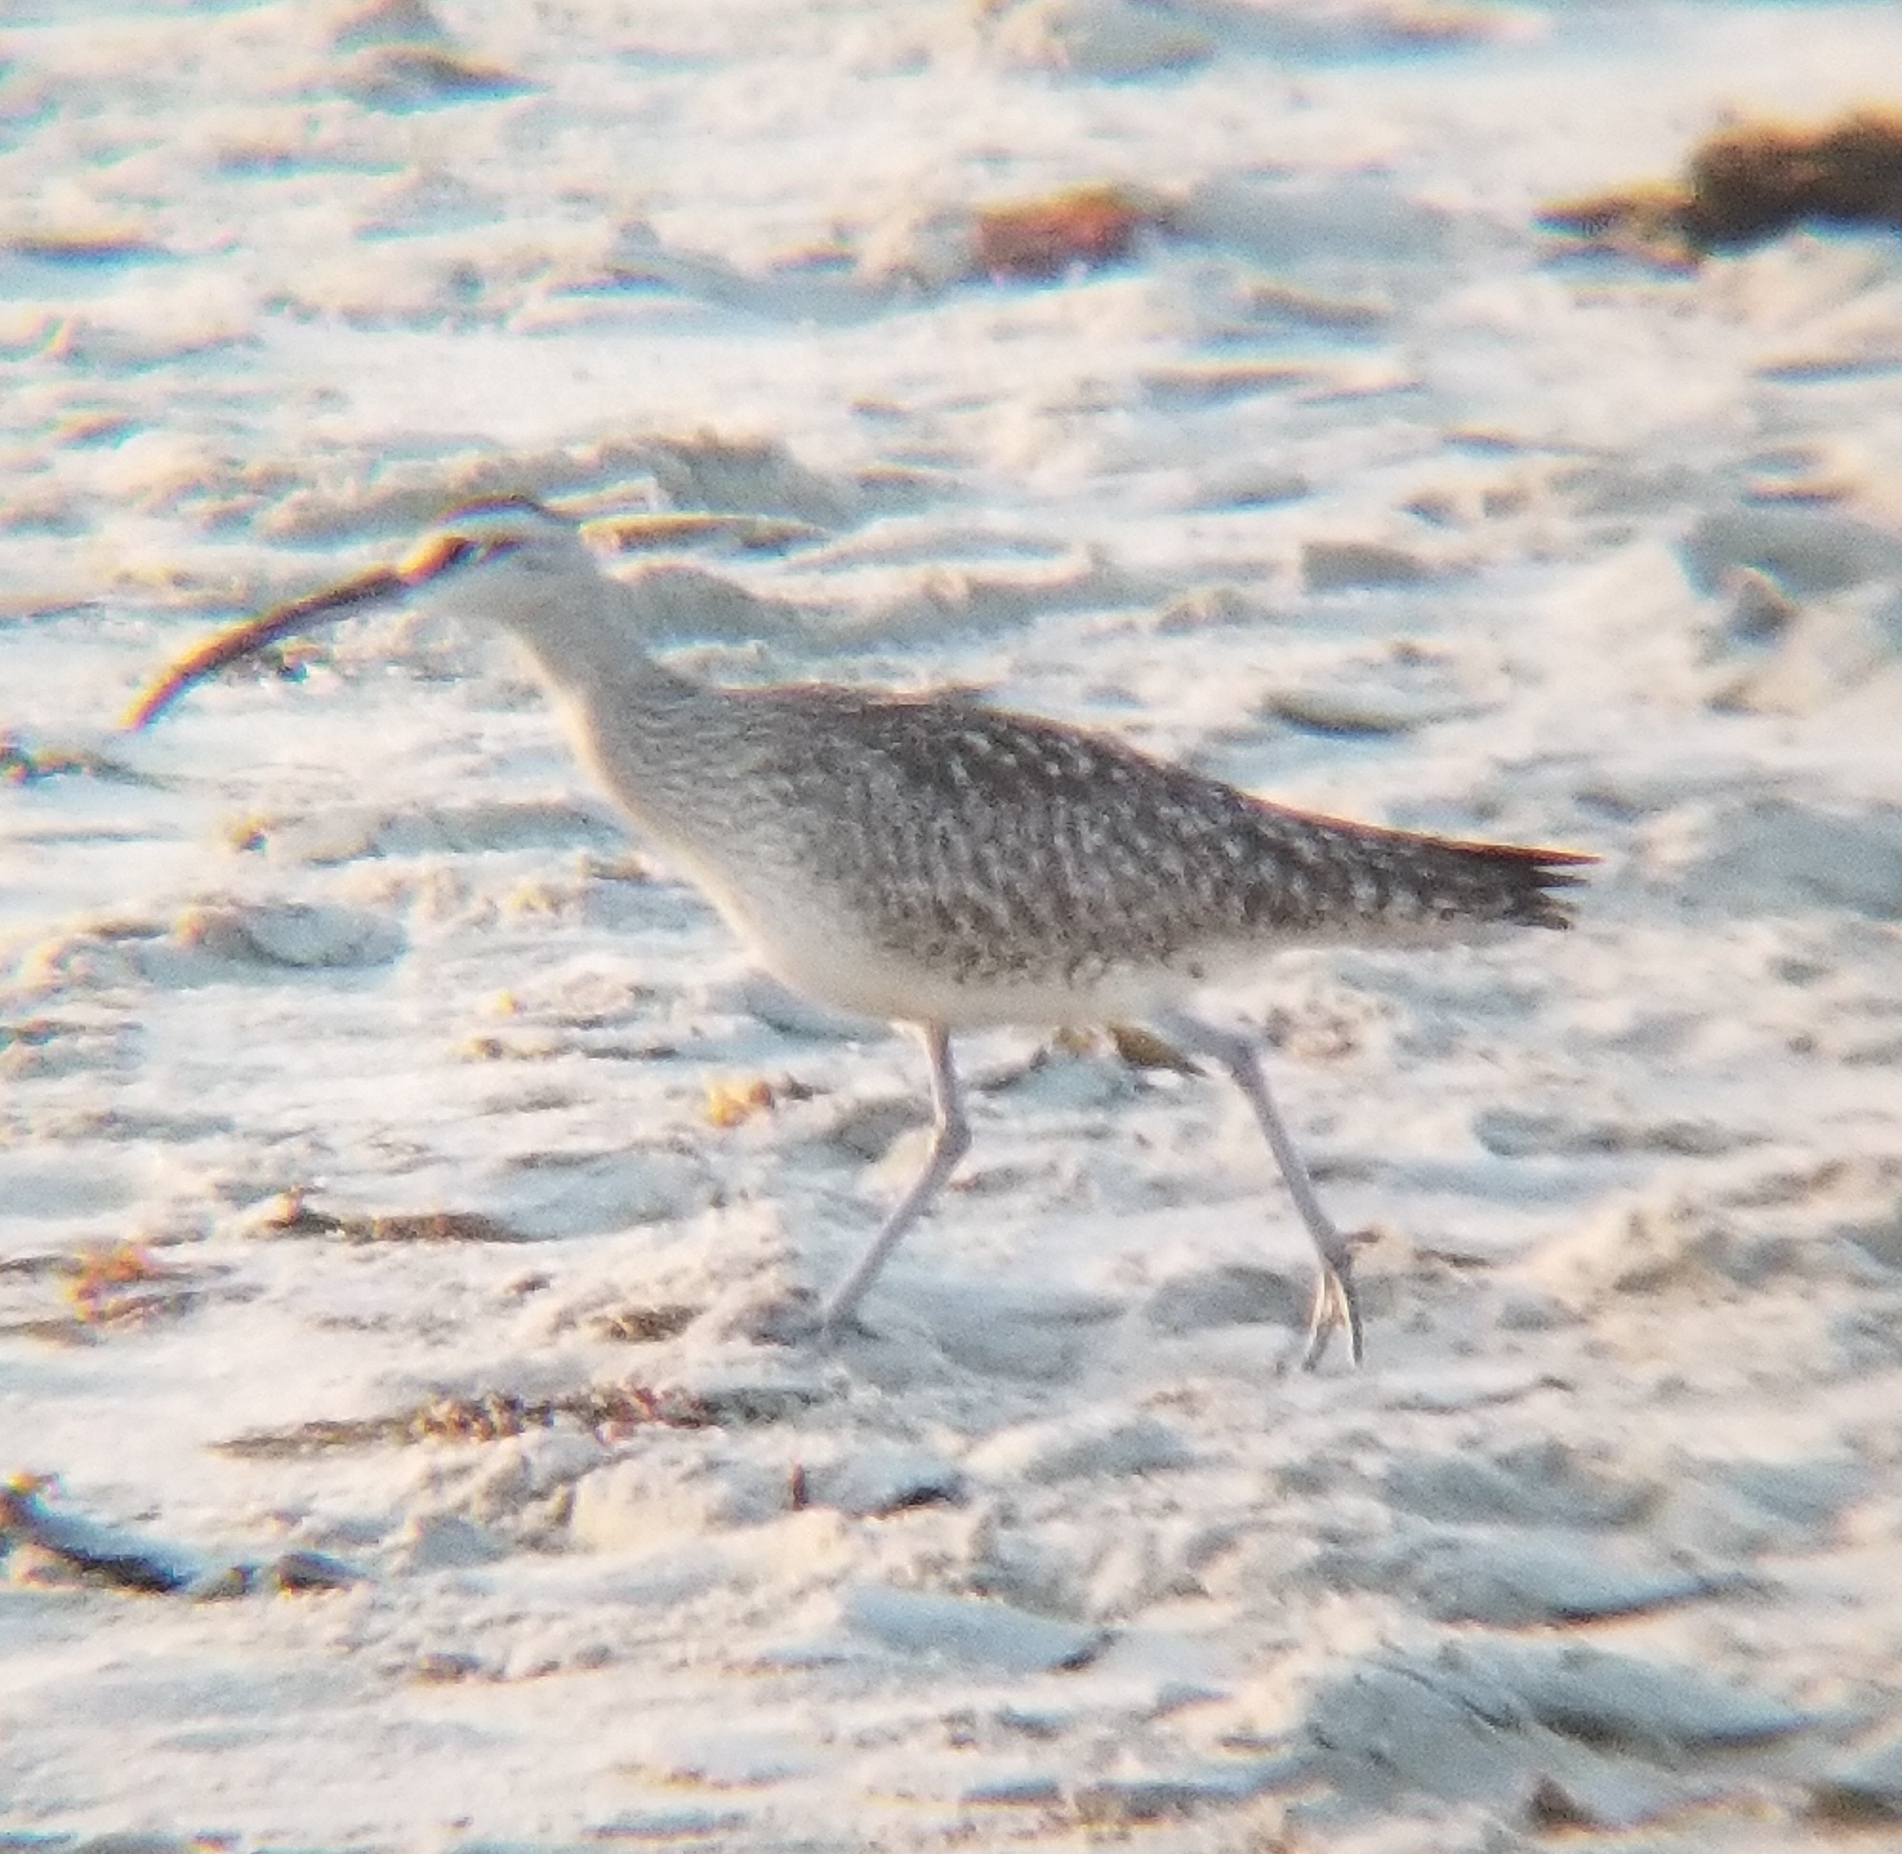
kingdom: Animalia
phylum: Chordata
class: Aves
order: Charadriiformes
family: Scolopacidae
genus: Numenius
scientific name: Numenius phaeopus
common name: Whimbrel
